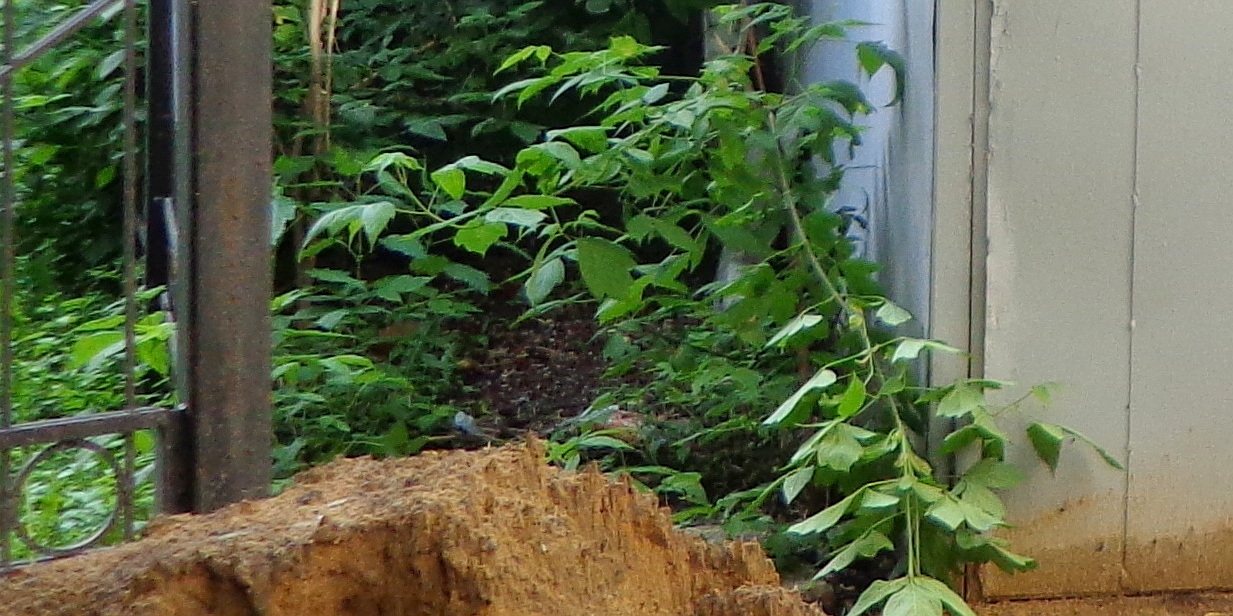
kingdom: Plantae
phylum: Tracheophyta
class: Magnoliopsida
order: Sapindales
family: Sapindaceae
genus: Acer
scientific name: Acer negundo
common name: Ashleaf maple
